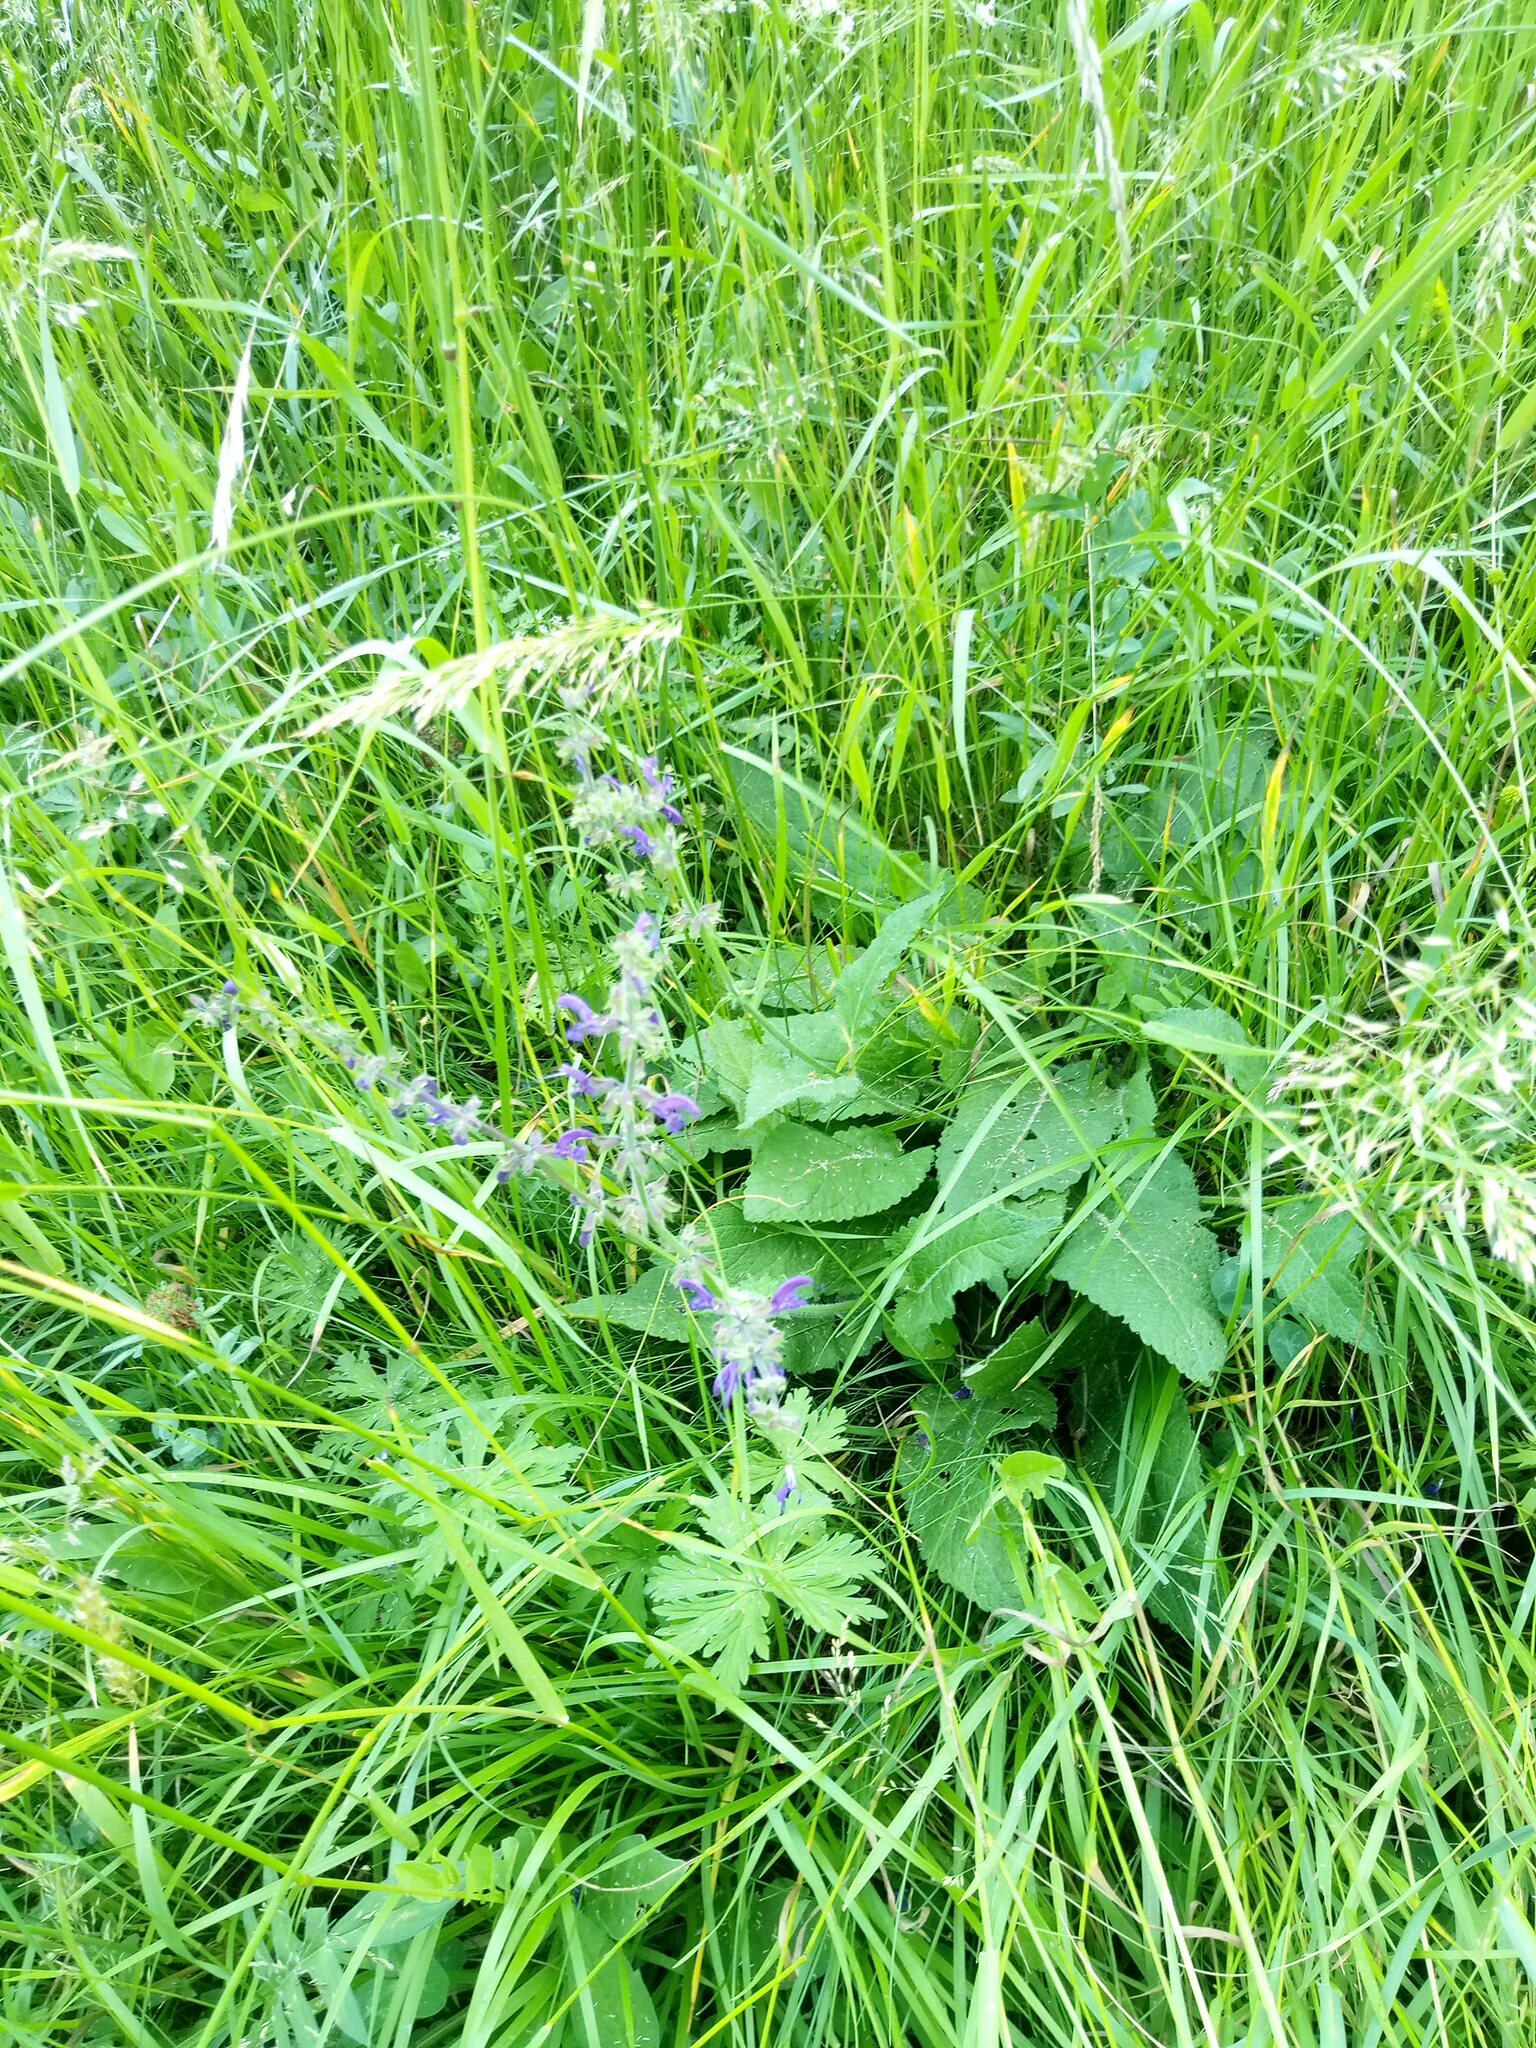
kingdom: Plantae
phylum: Tracheophyta
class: Magnoliopsida
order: Lamiales
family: Lamiaceae
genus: Salvia
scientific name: Salvia pratensis
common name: Meadow sage
